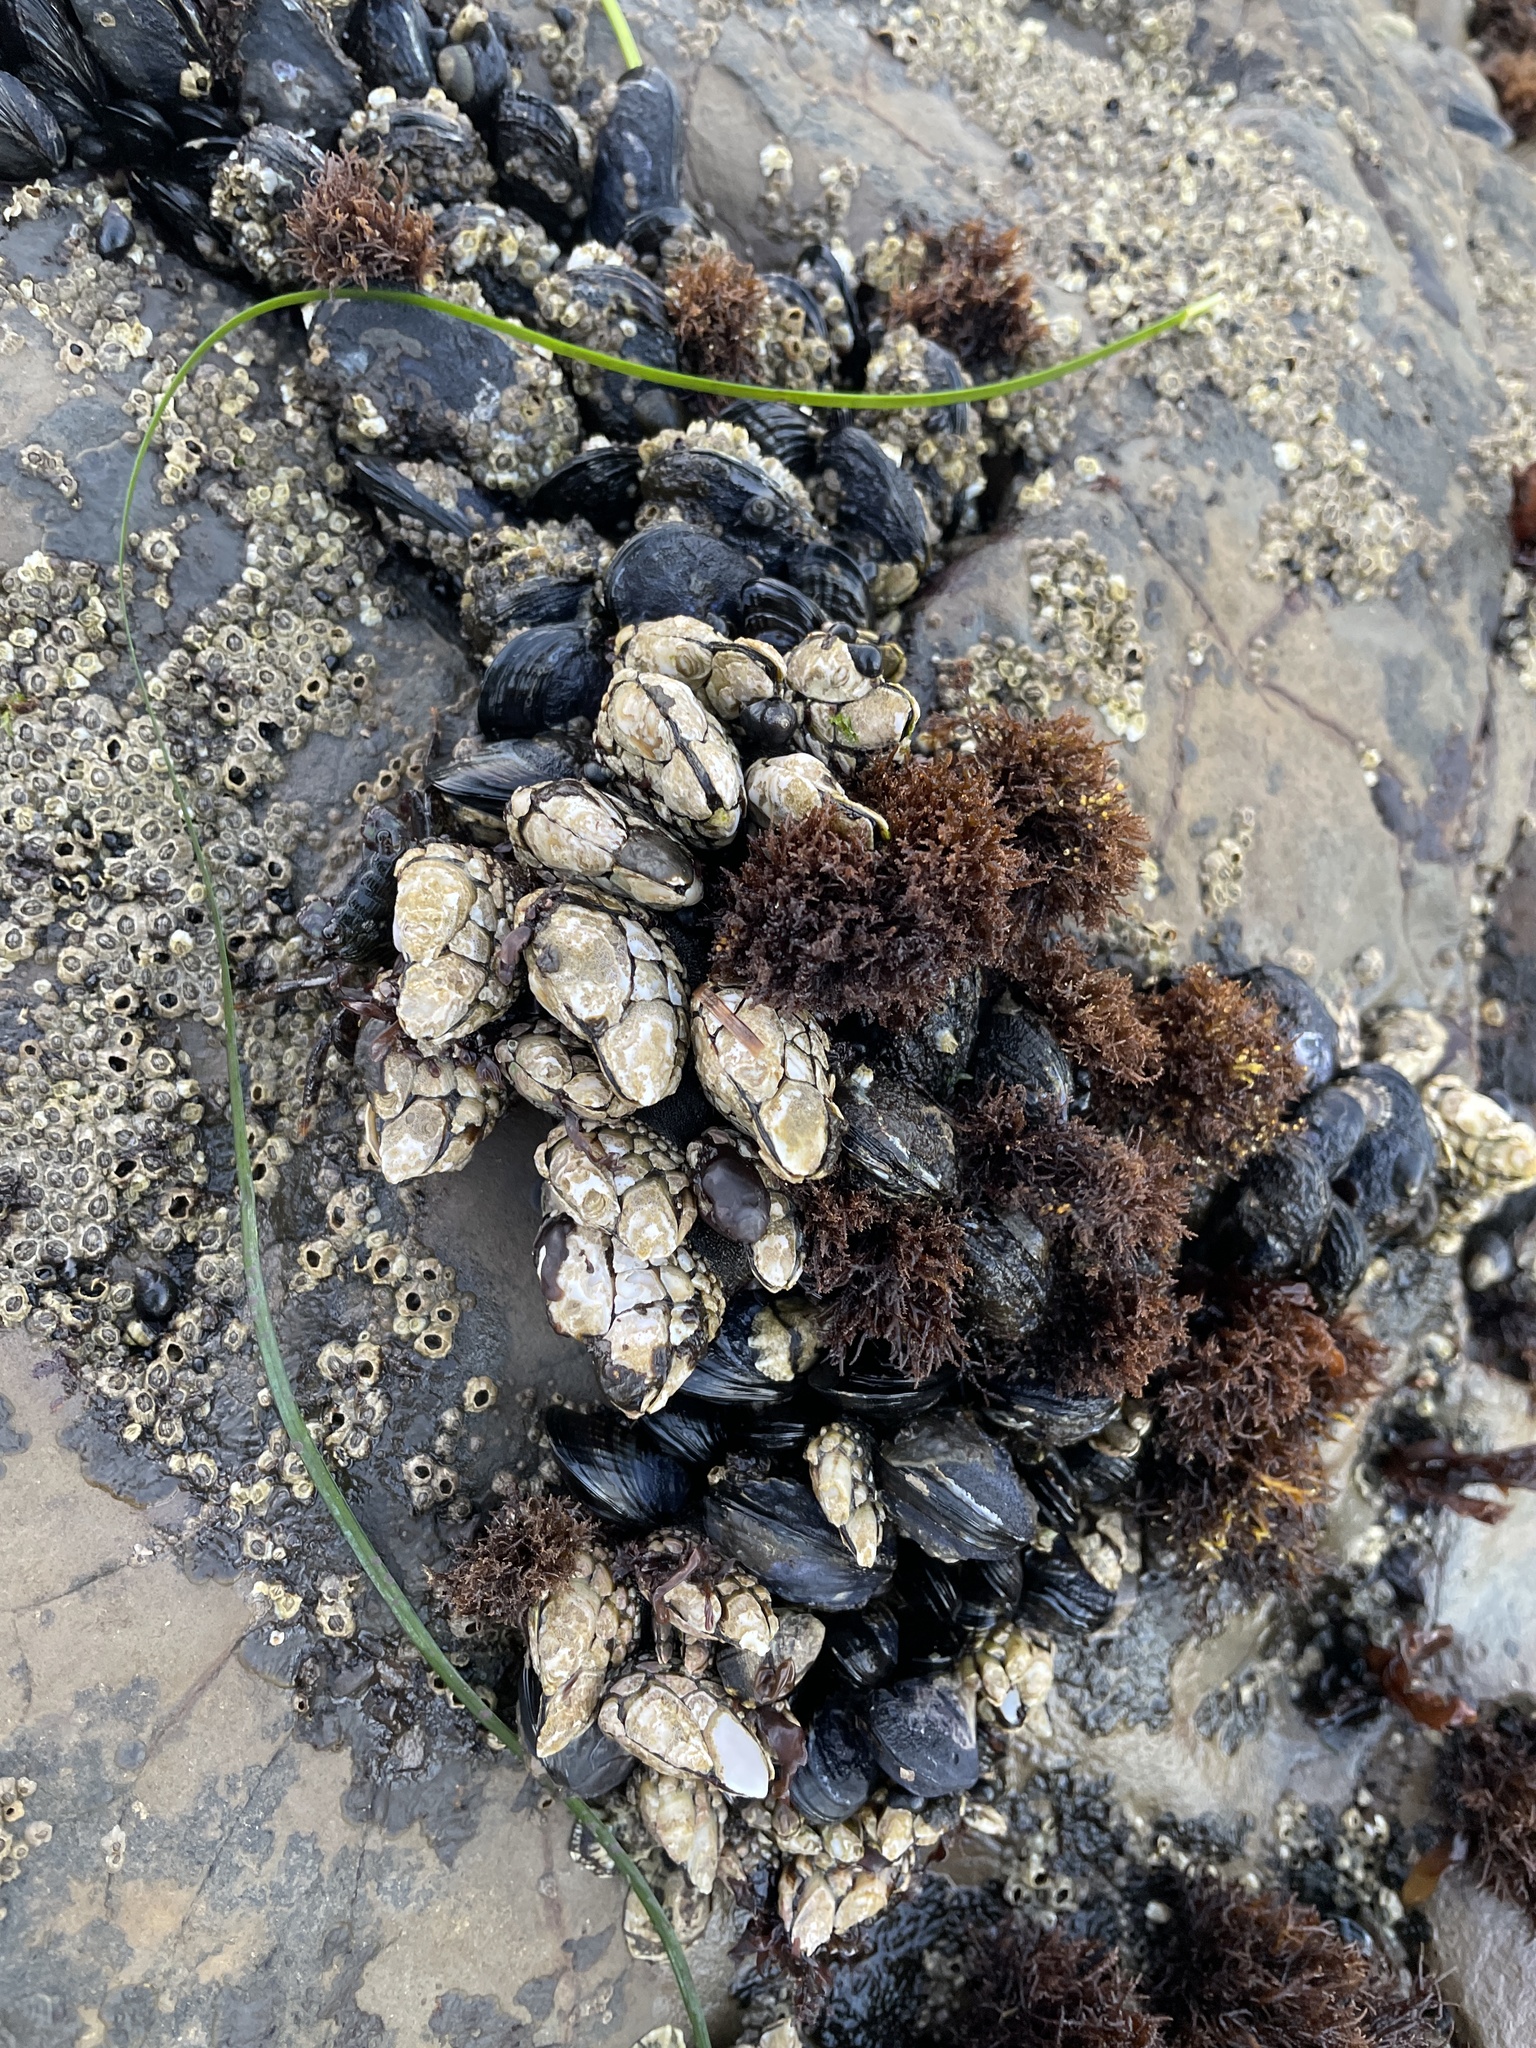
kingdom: Animalia
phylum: Arthropoda
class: Maxillopoda
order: Pedunculata
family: Pollicipedidae
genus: Pollicipes
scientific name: Pollicipes polymerus
